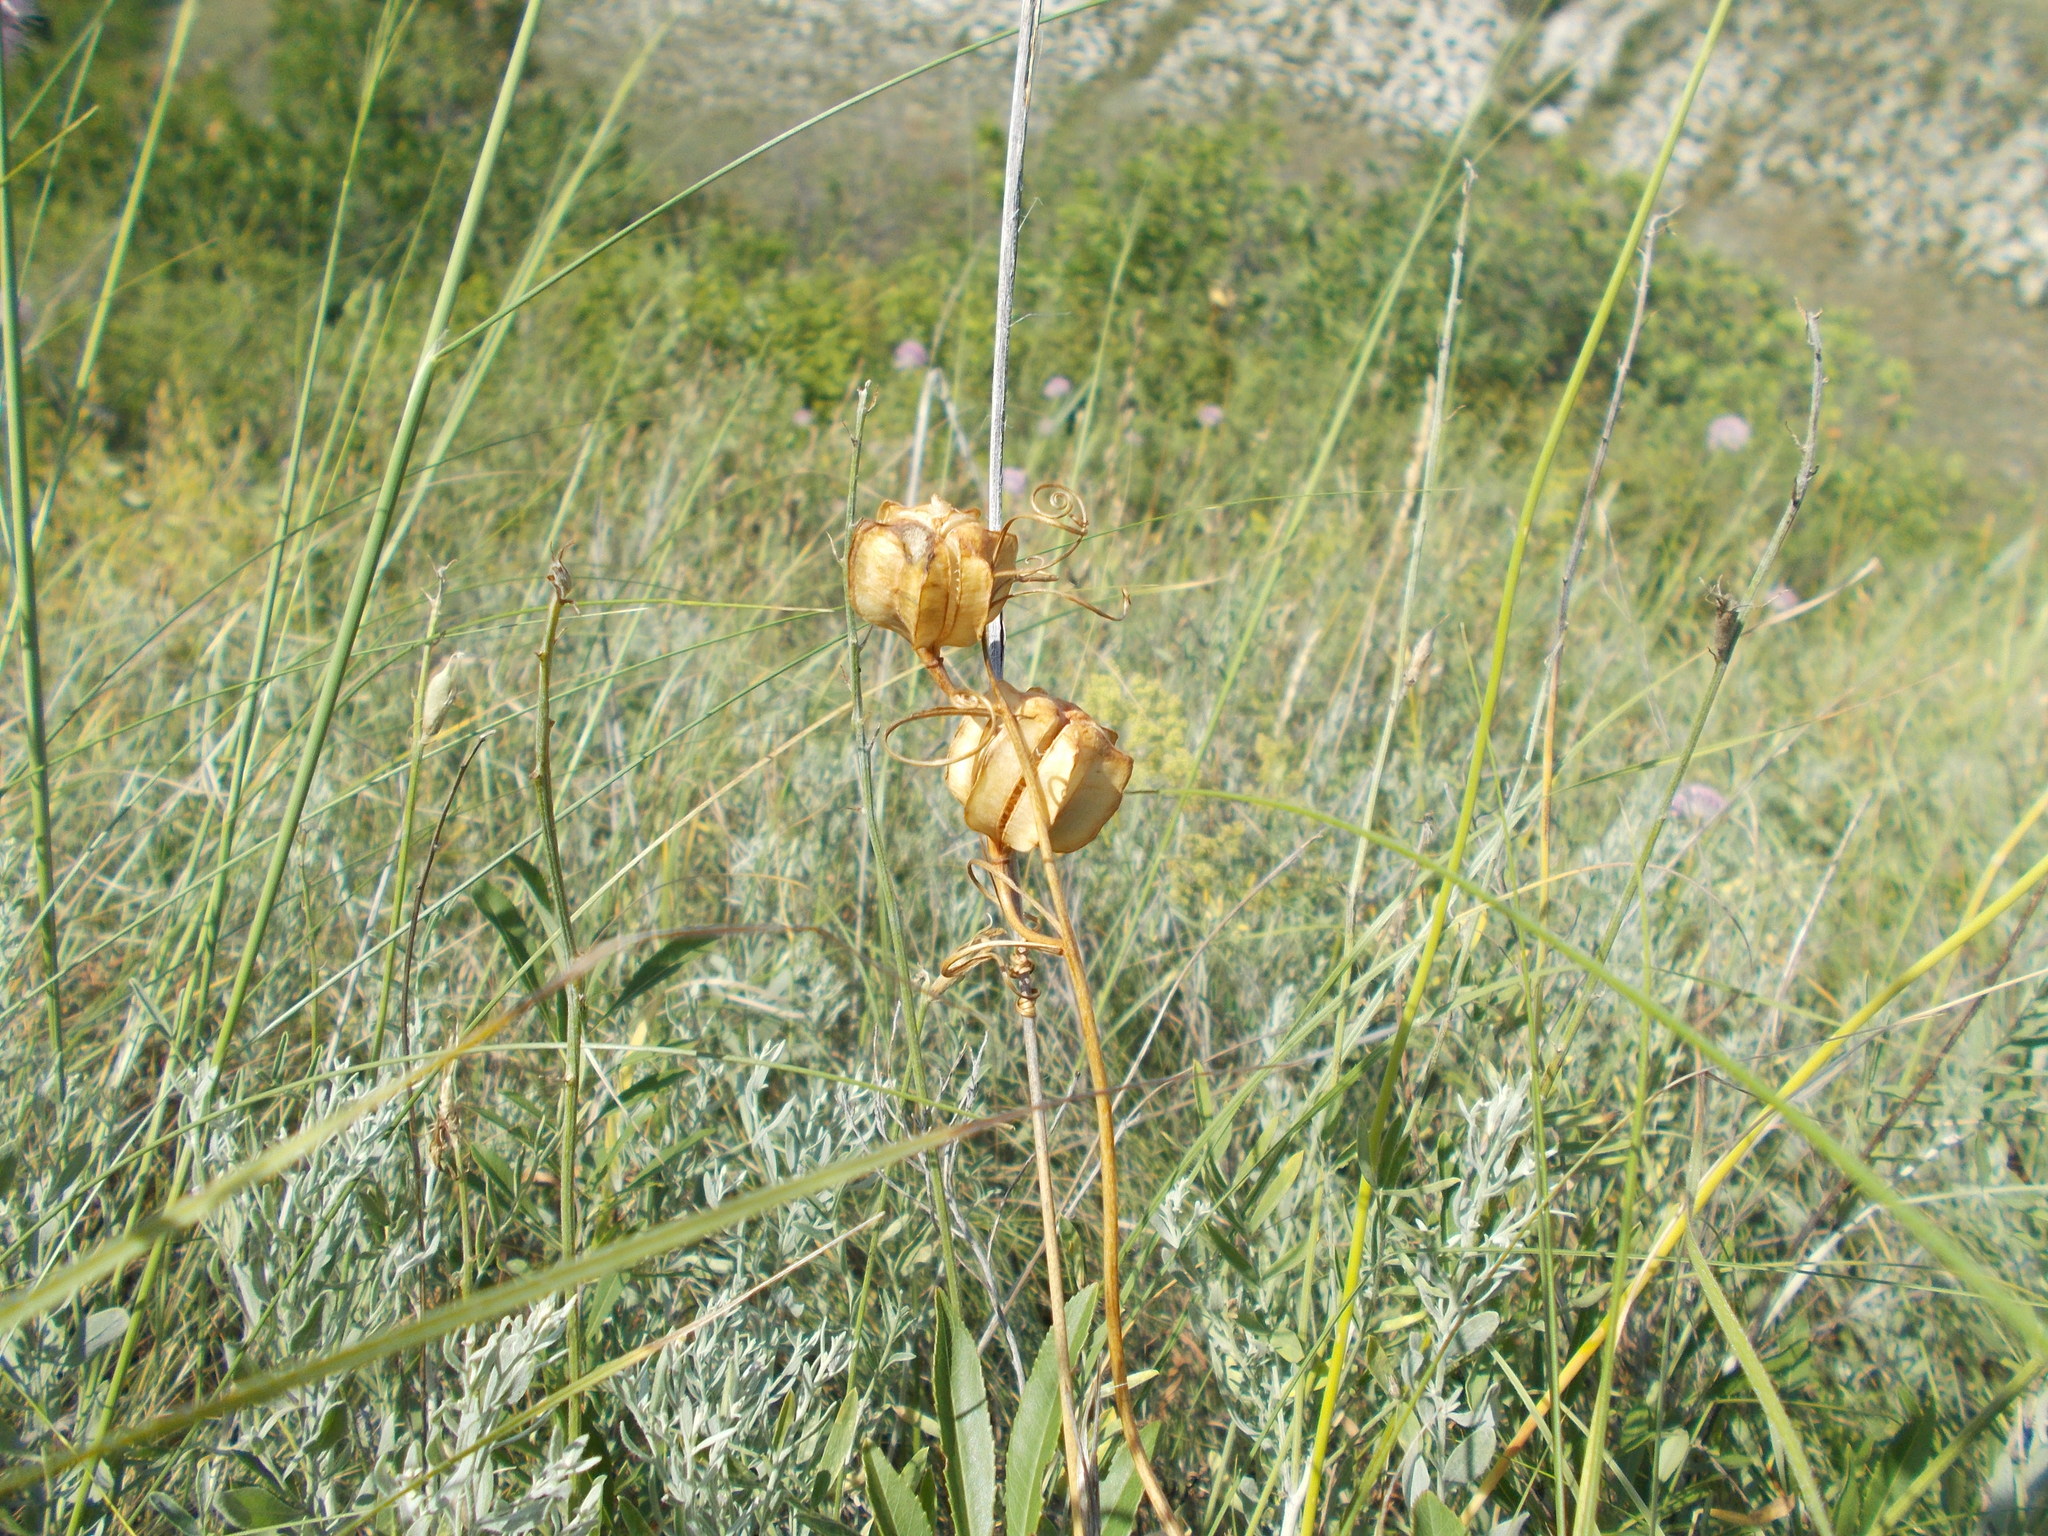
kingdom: Plantae
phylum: Tracheophyta
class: Liliopsida
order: Liliales
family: Liliaceae
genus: Fritillaria
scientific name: Fritillaria ruthenica
